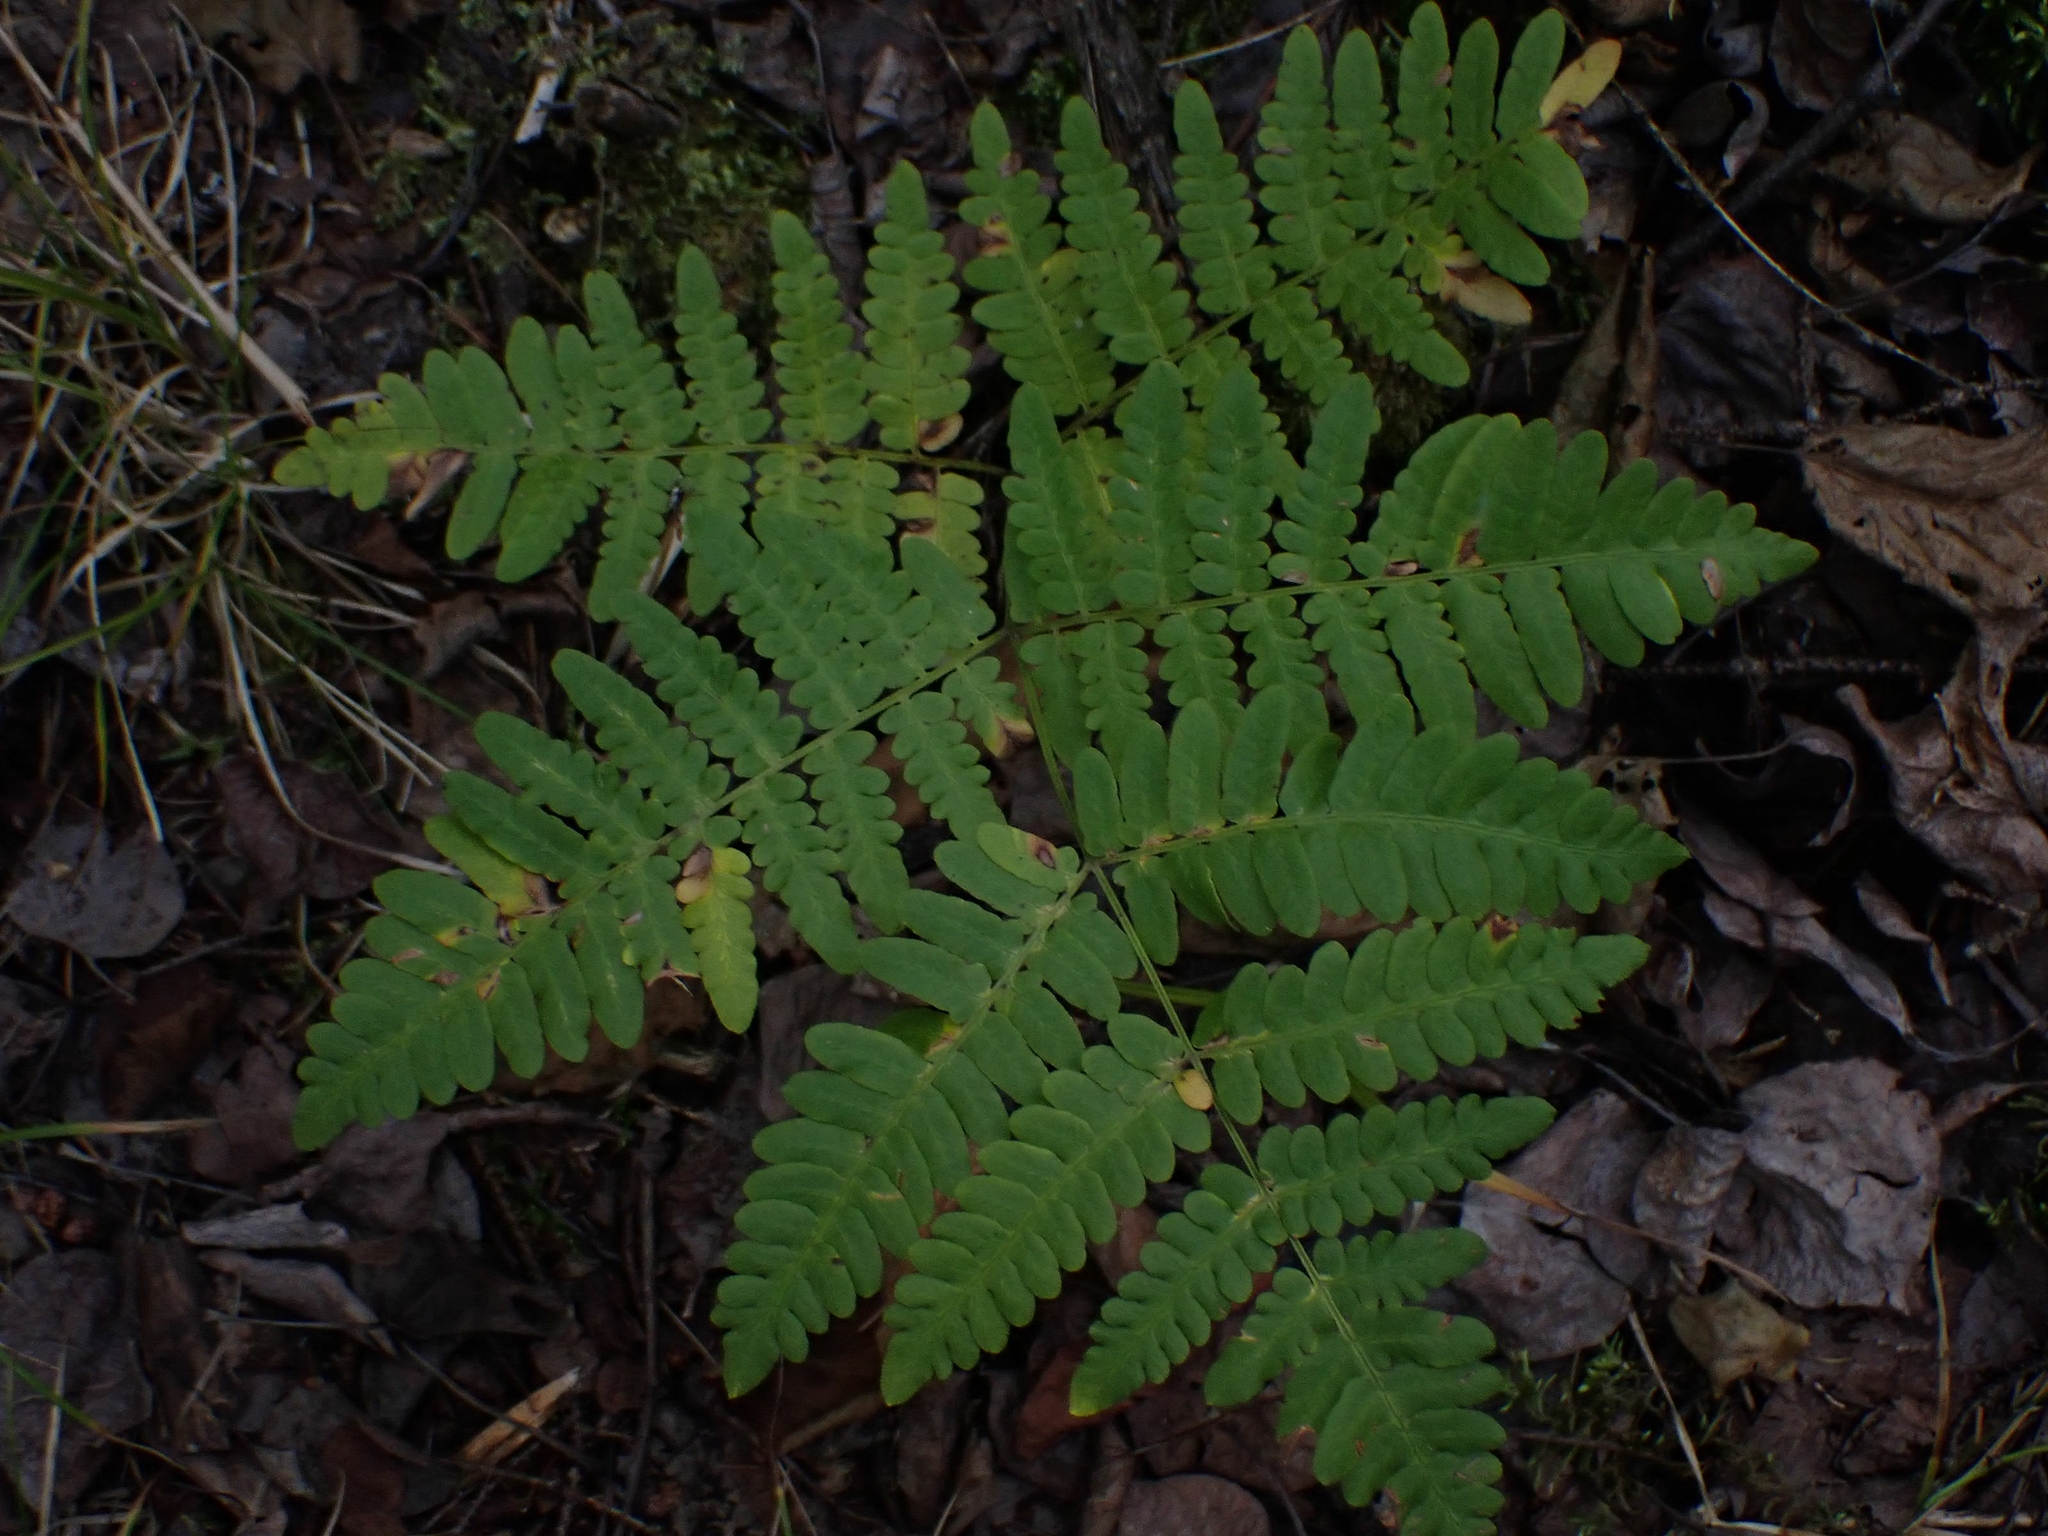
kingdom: Plantae
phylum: Tracheophyta
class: Polypodiopsida
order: Polypodiales
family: Dennstaedtiaceae
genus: Pteridium
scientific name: Pteridium aquilinum
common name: Bracken
